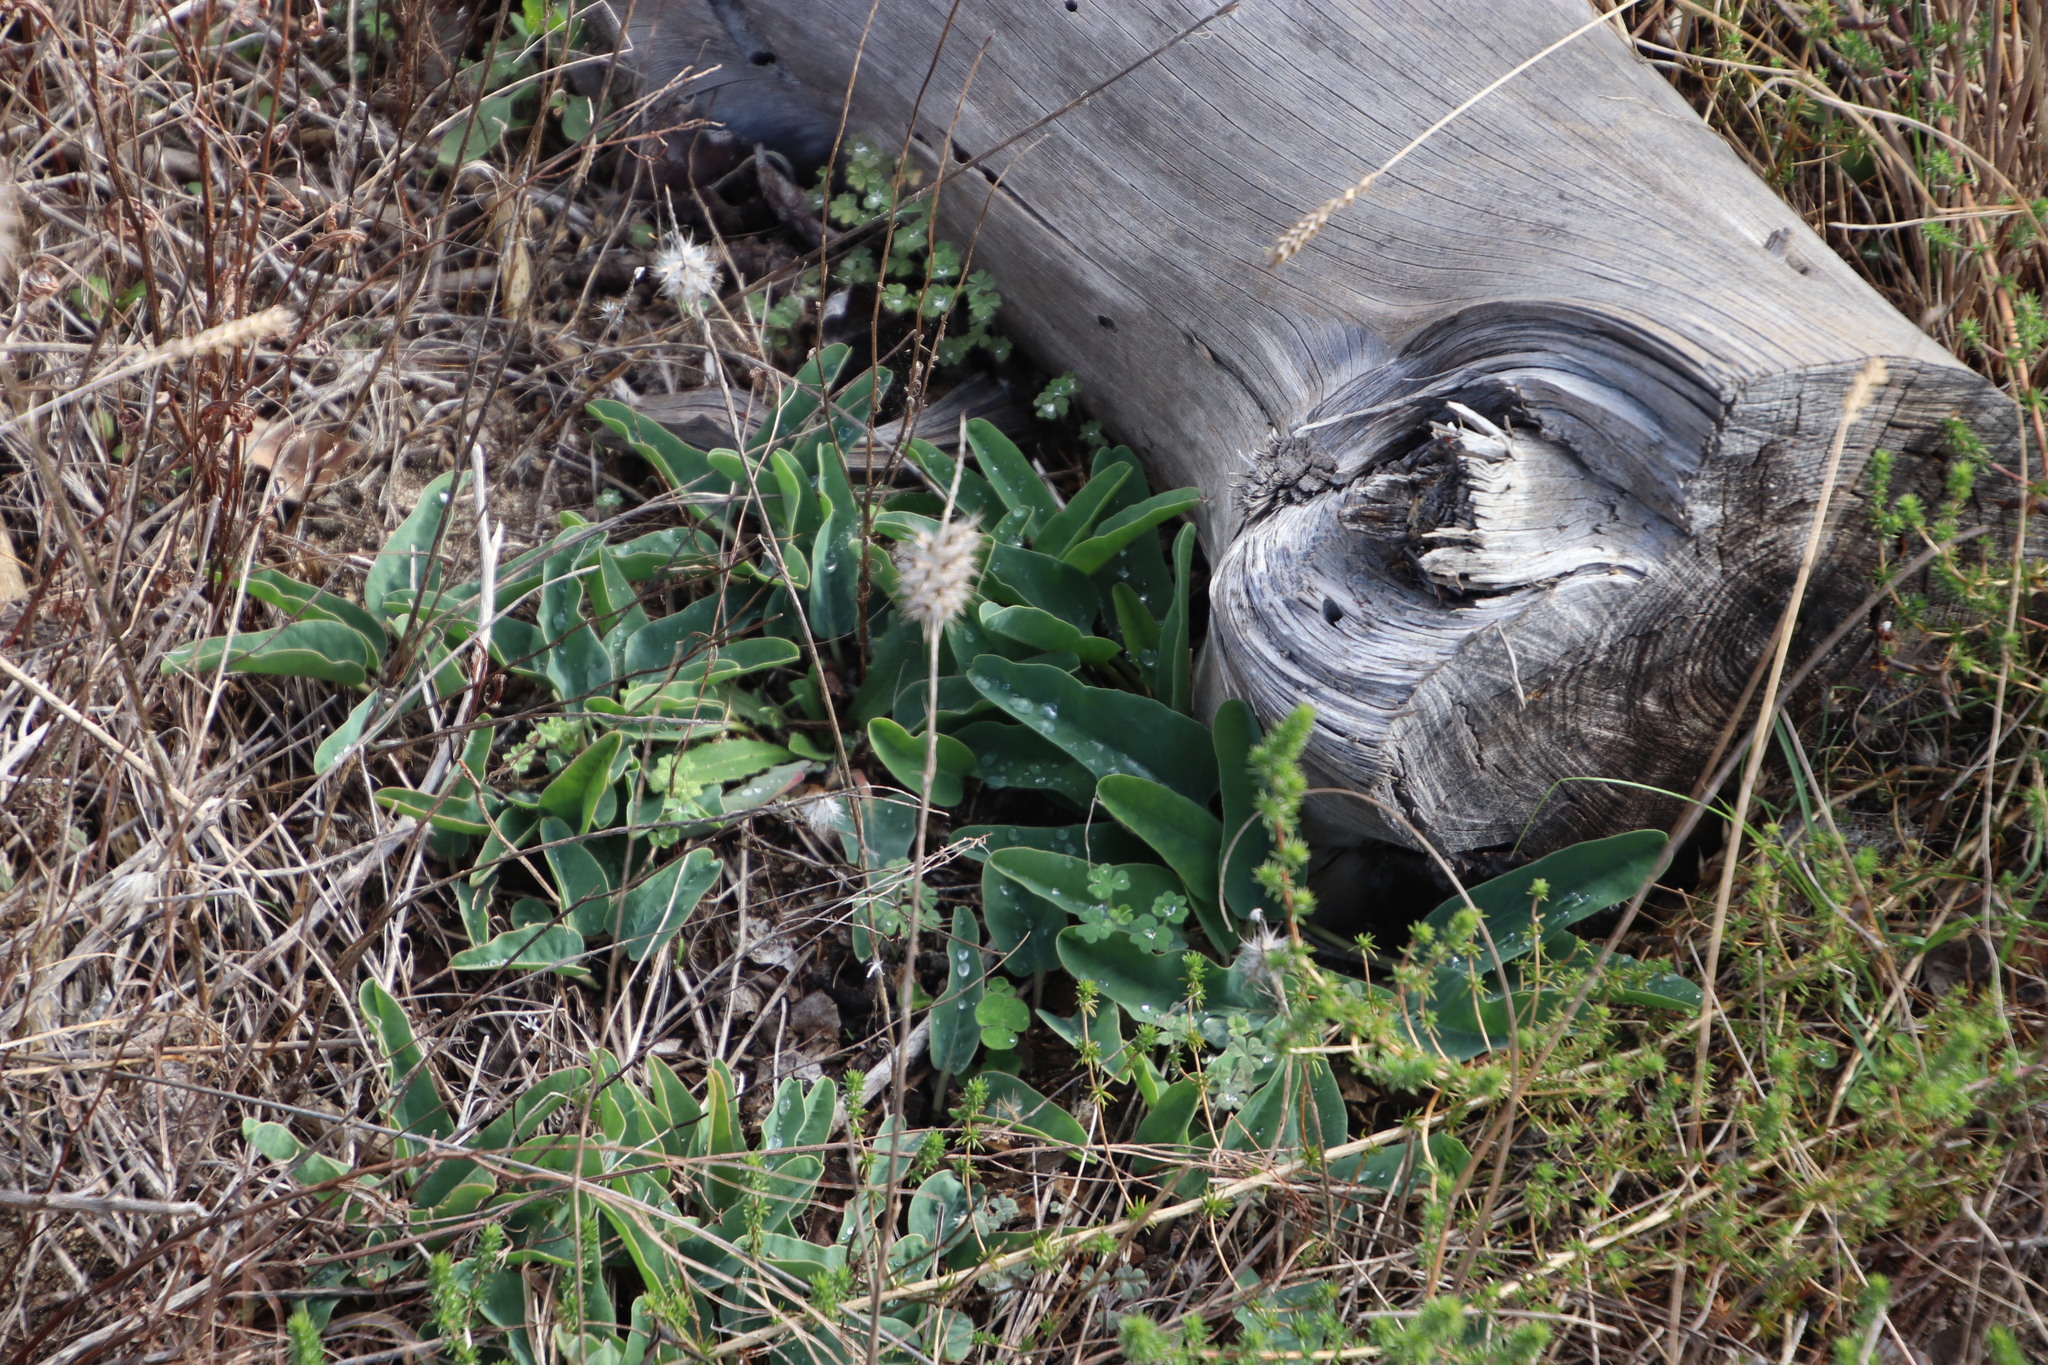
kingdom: Plantae
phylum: Tracheophyta
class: Magnoliopsida
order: Malpighiales
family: Euphorbiaceae
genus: Euphorbia
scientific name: Euphorbia tuberosa
